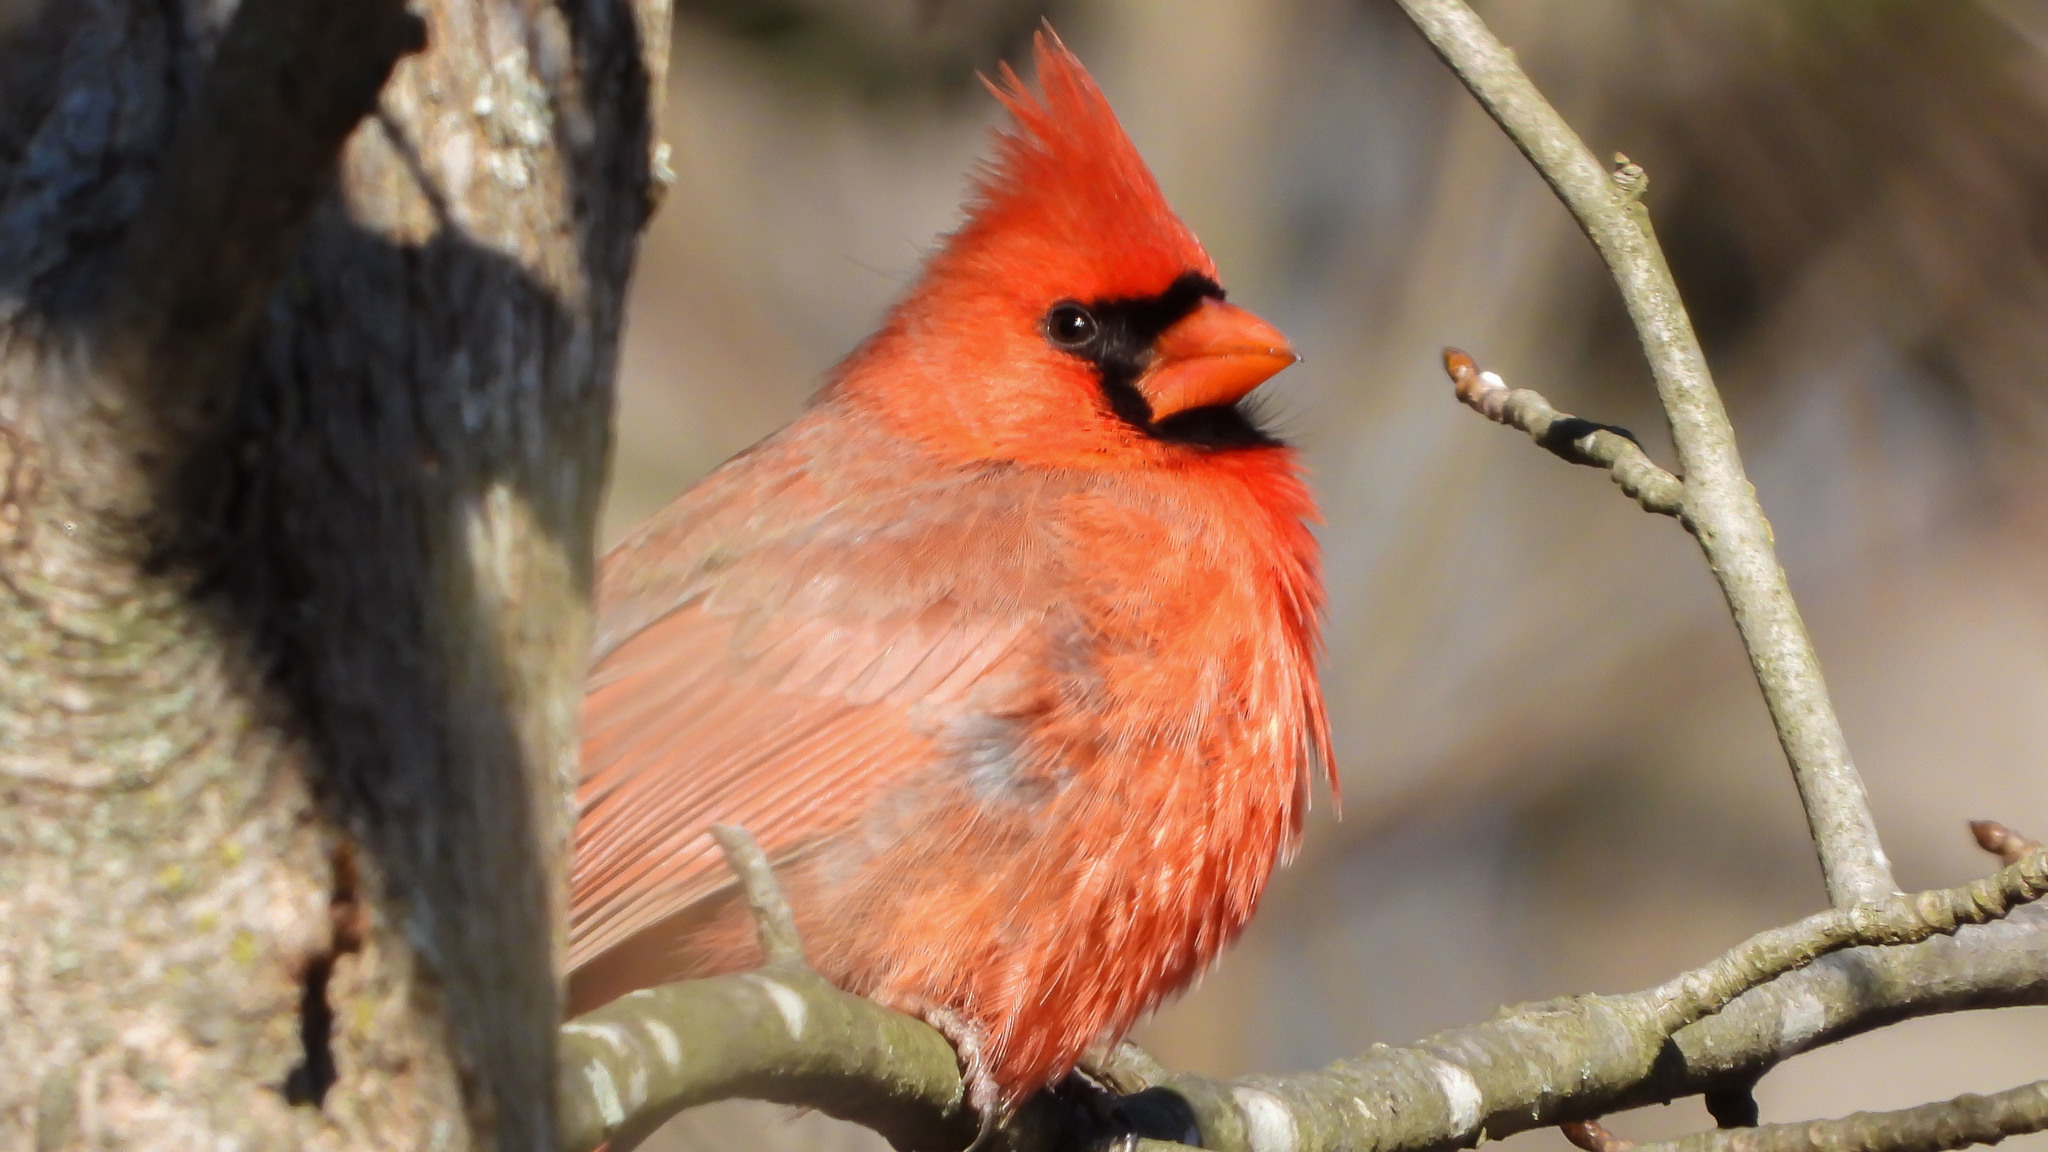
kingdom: Animalia
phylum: Chordata
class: Aves
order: Passeriformes
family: Cardinalidae
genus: Cardinalis
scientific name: Cardinalis cardinalis
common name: Northern cardinal
